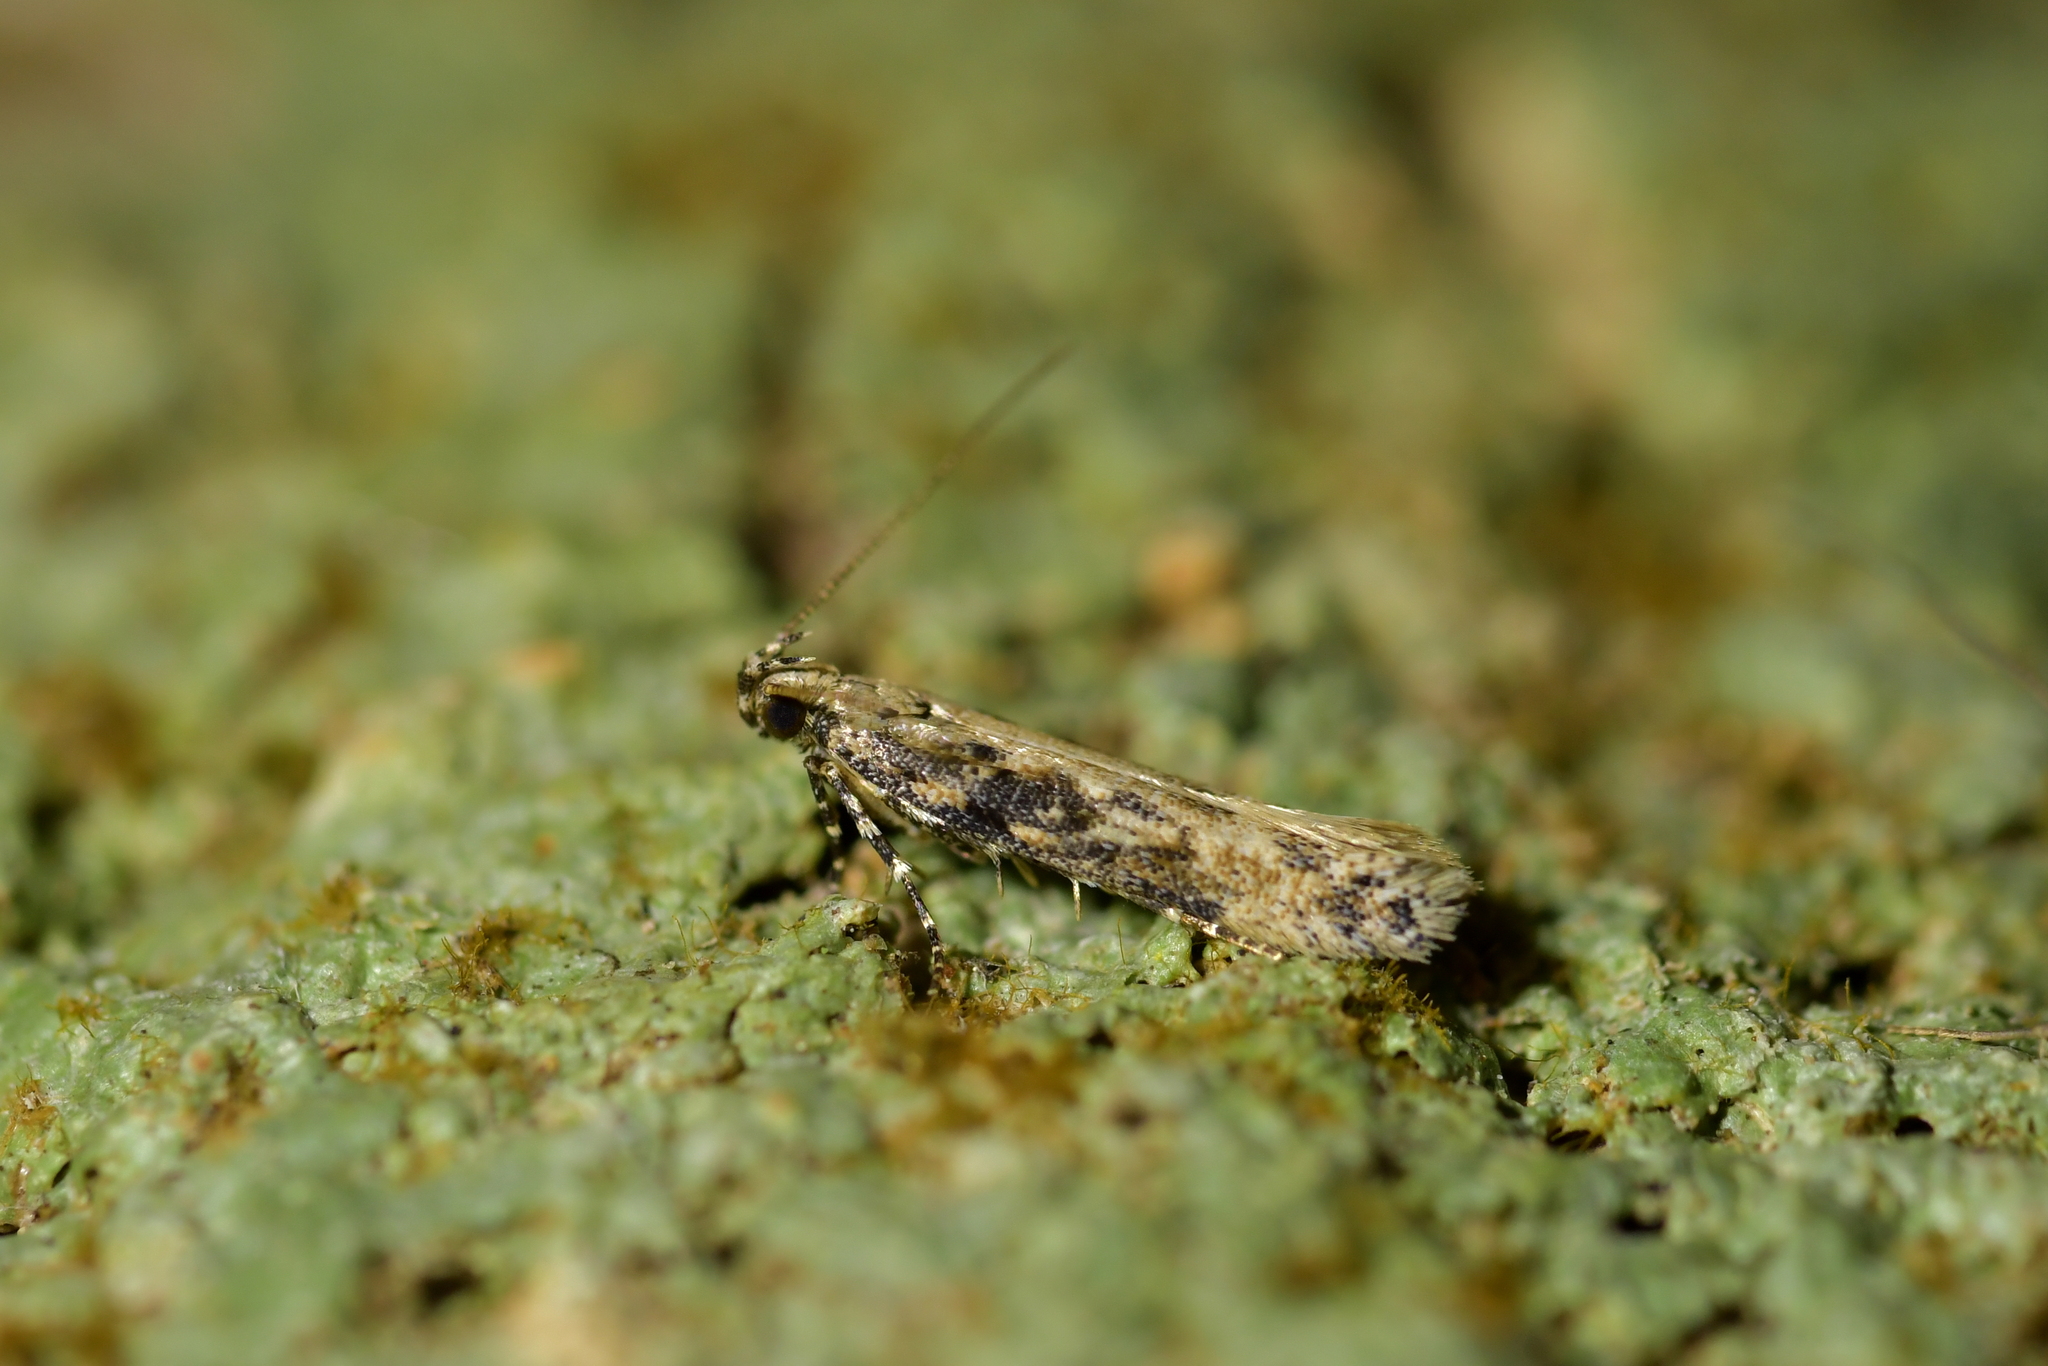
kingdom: Animalia
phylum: Arthropoda
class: Insecta
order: Lepidoptera
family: Gelechiidae
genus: Kiwaia
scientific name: Kiwaia brontophora
